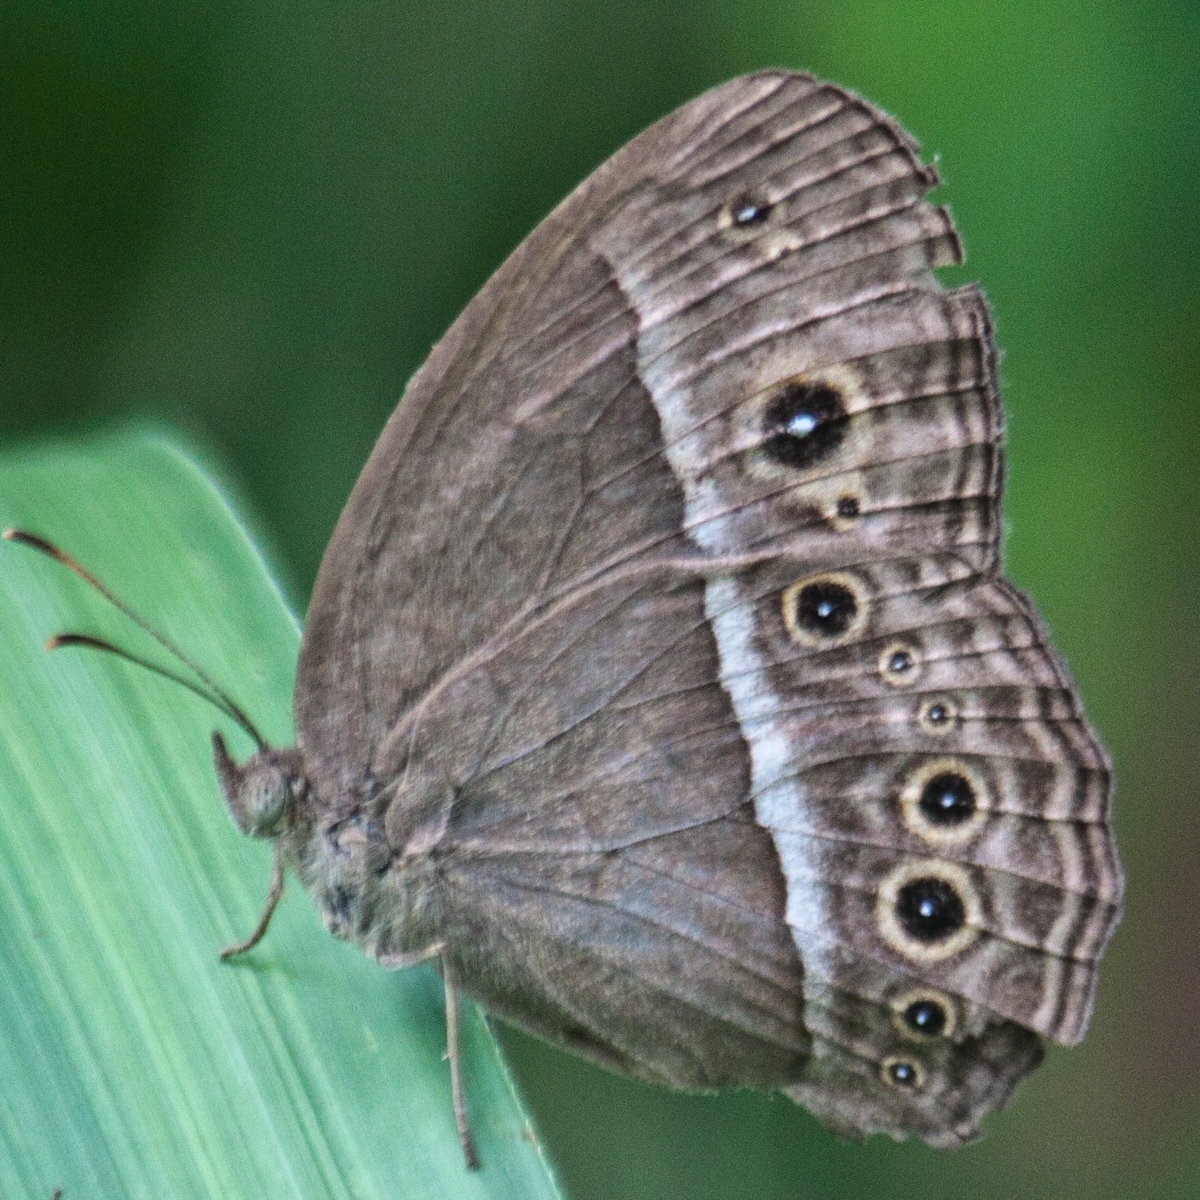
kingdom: Animalia
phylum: Arthropoda
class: Insecta
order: Lepidoptera
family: Nymphalidae
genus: Mycalesis
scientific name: Mycalesis perseoides
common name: Burmese bushbrown
